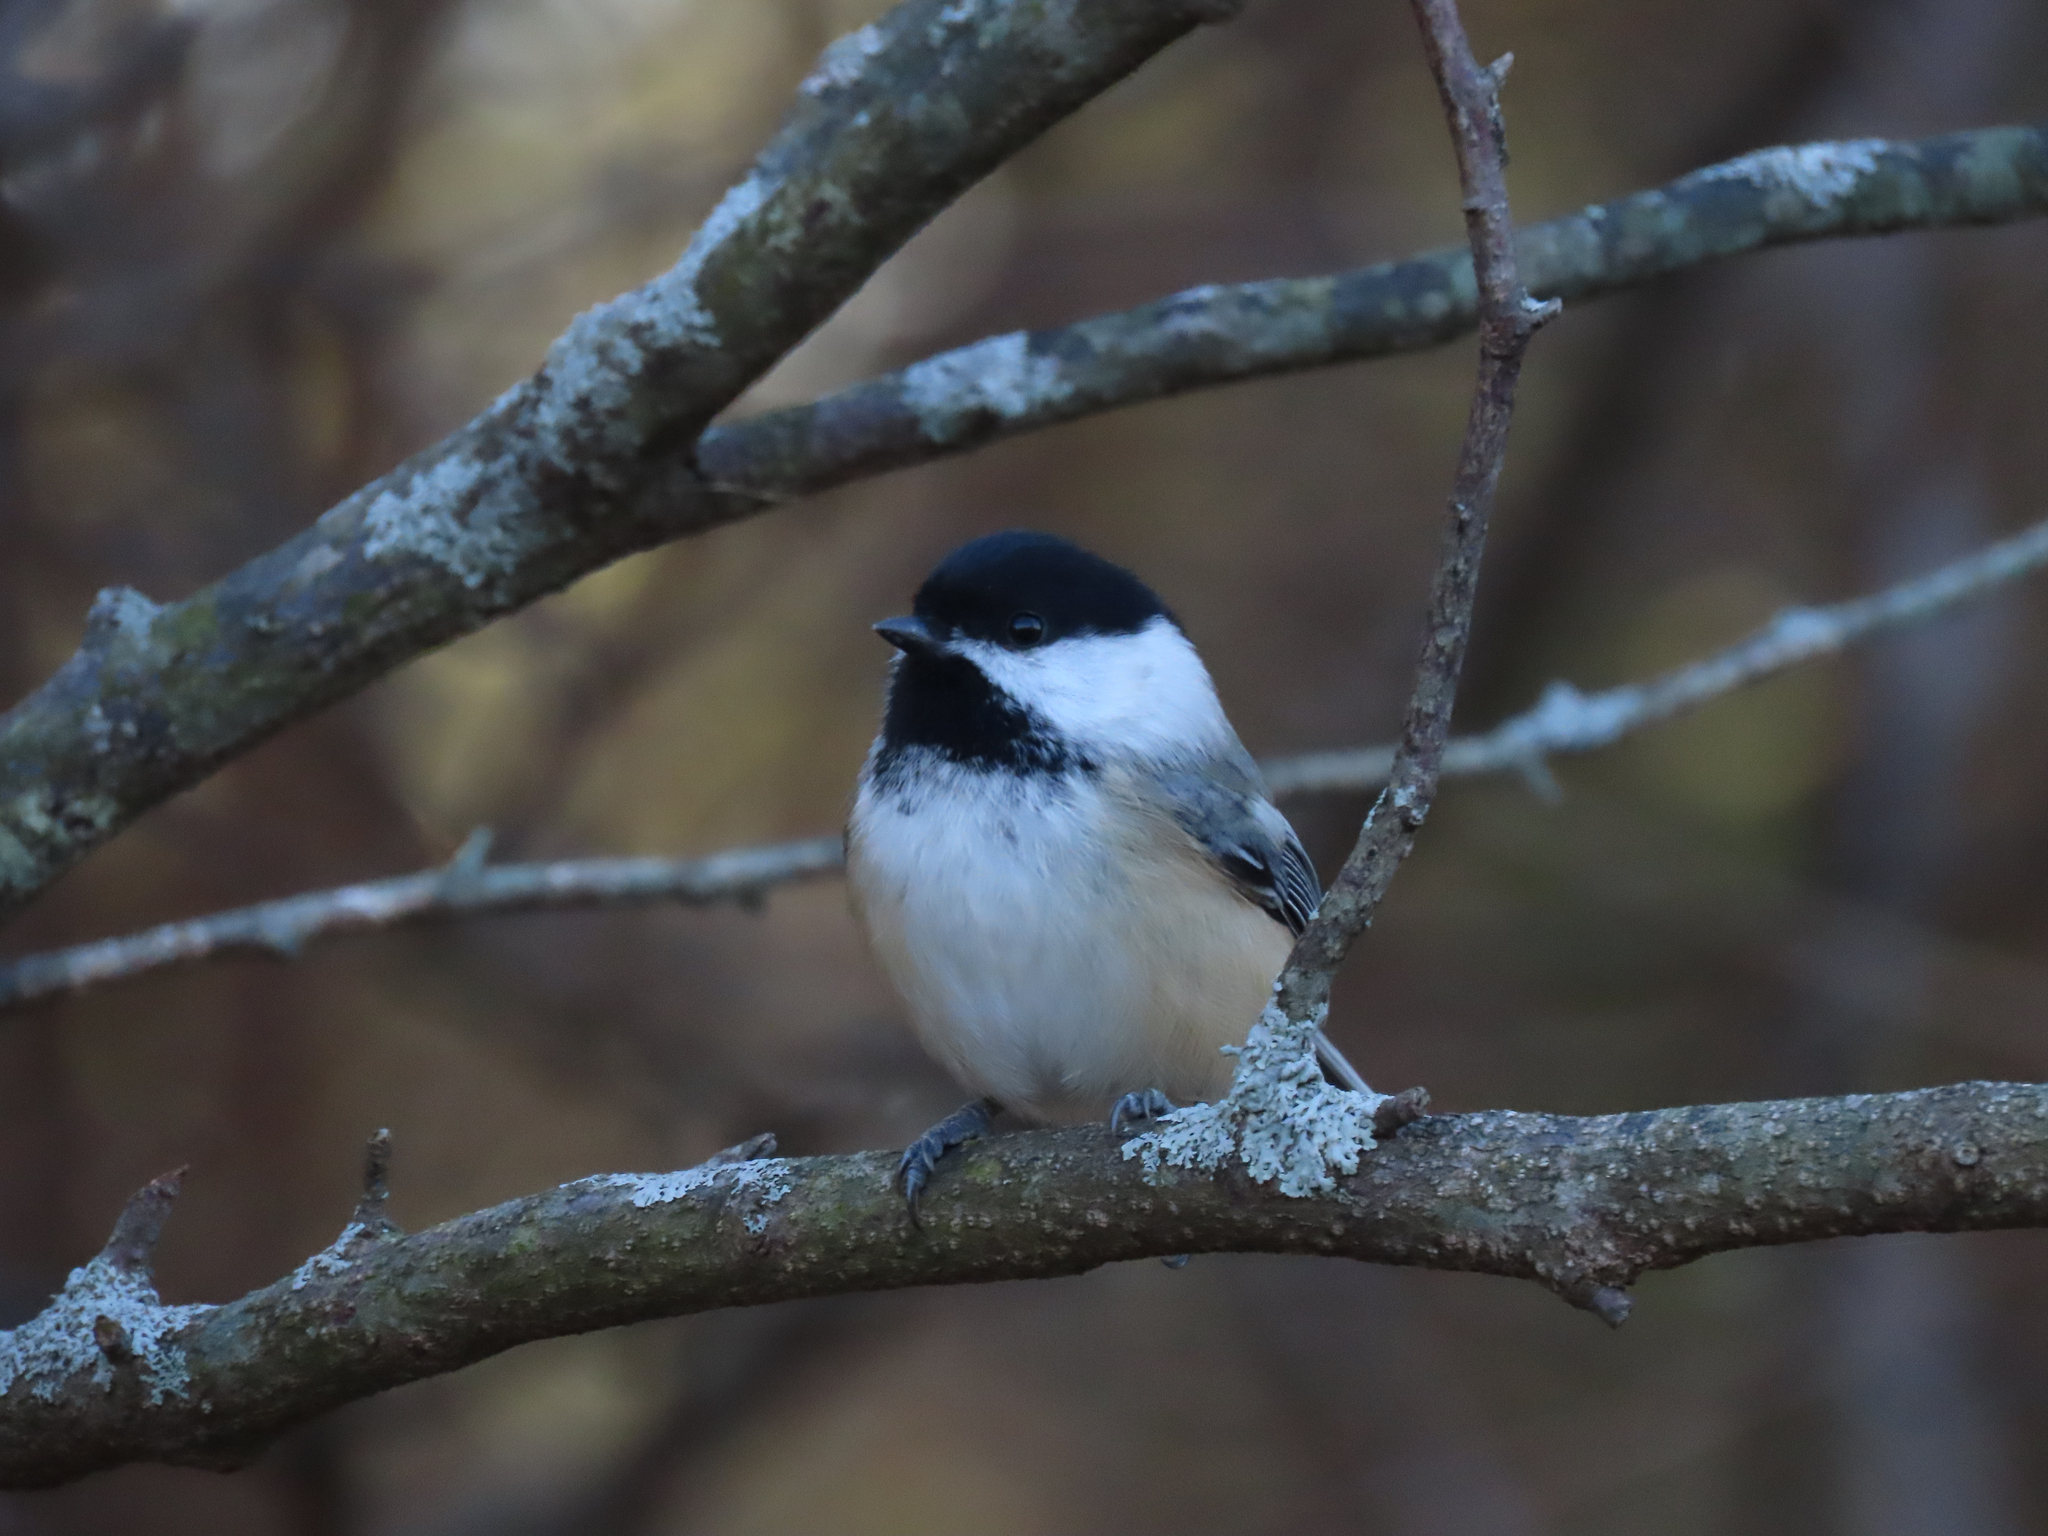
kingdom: Animalia
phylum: Chordata
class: Aves
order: Passeriformes
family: Paridae
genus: Poecile
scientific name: Poecile atricapillus
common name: Black-capped chickadee
